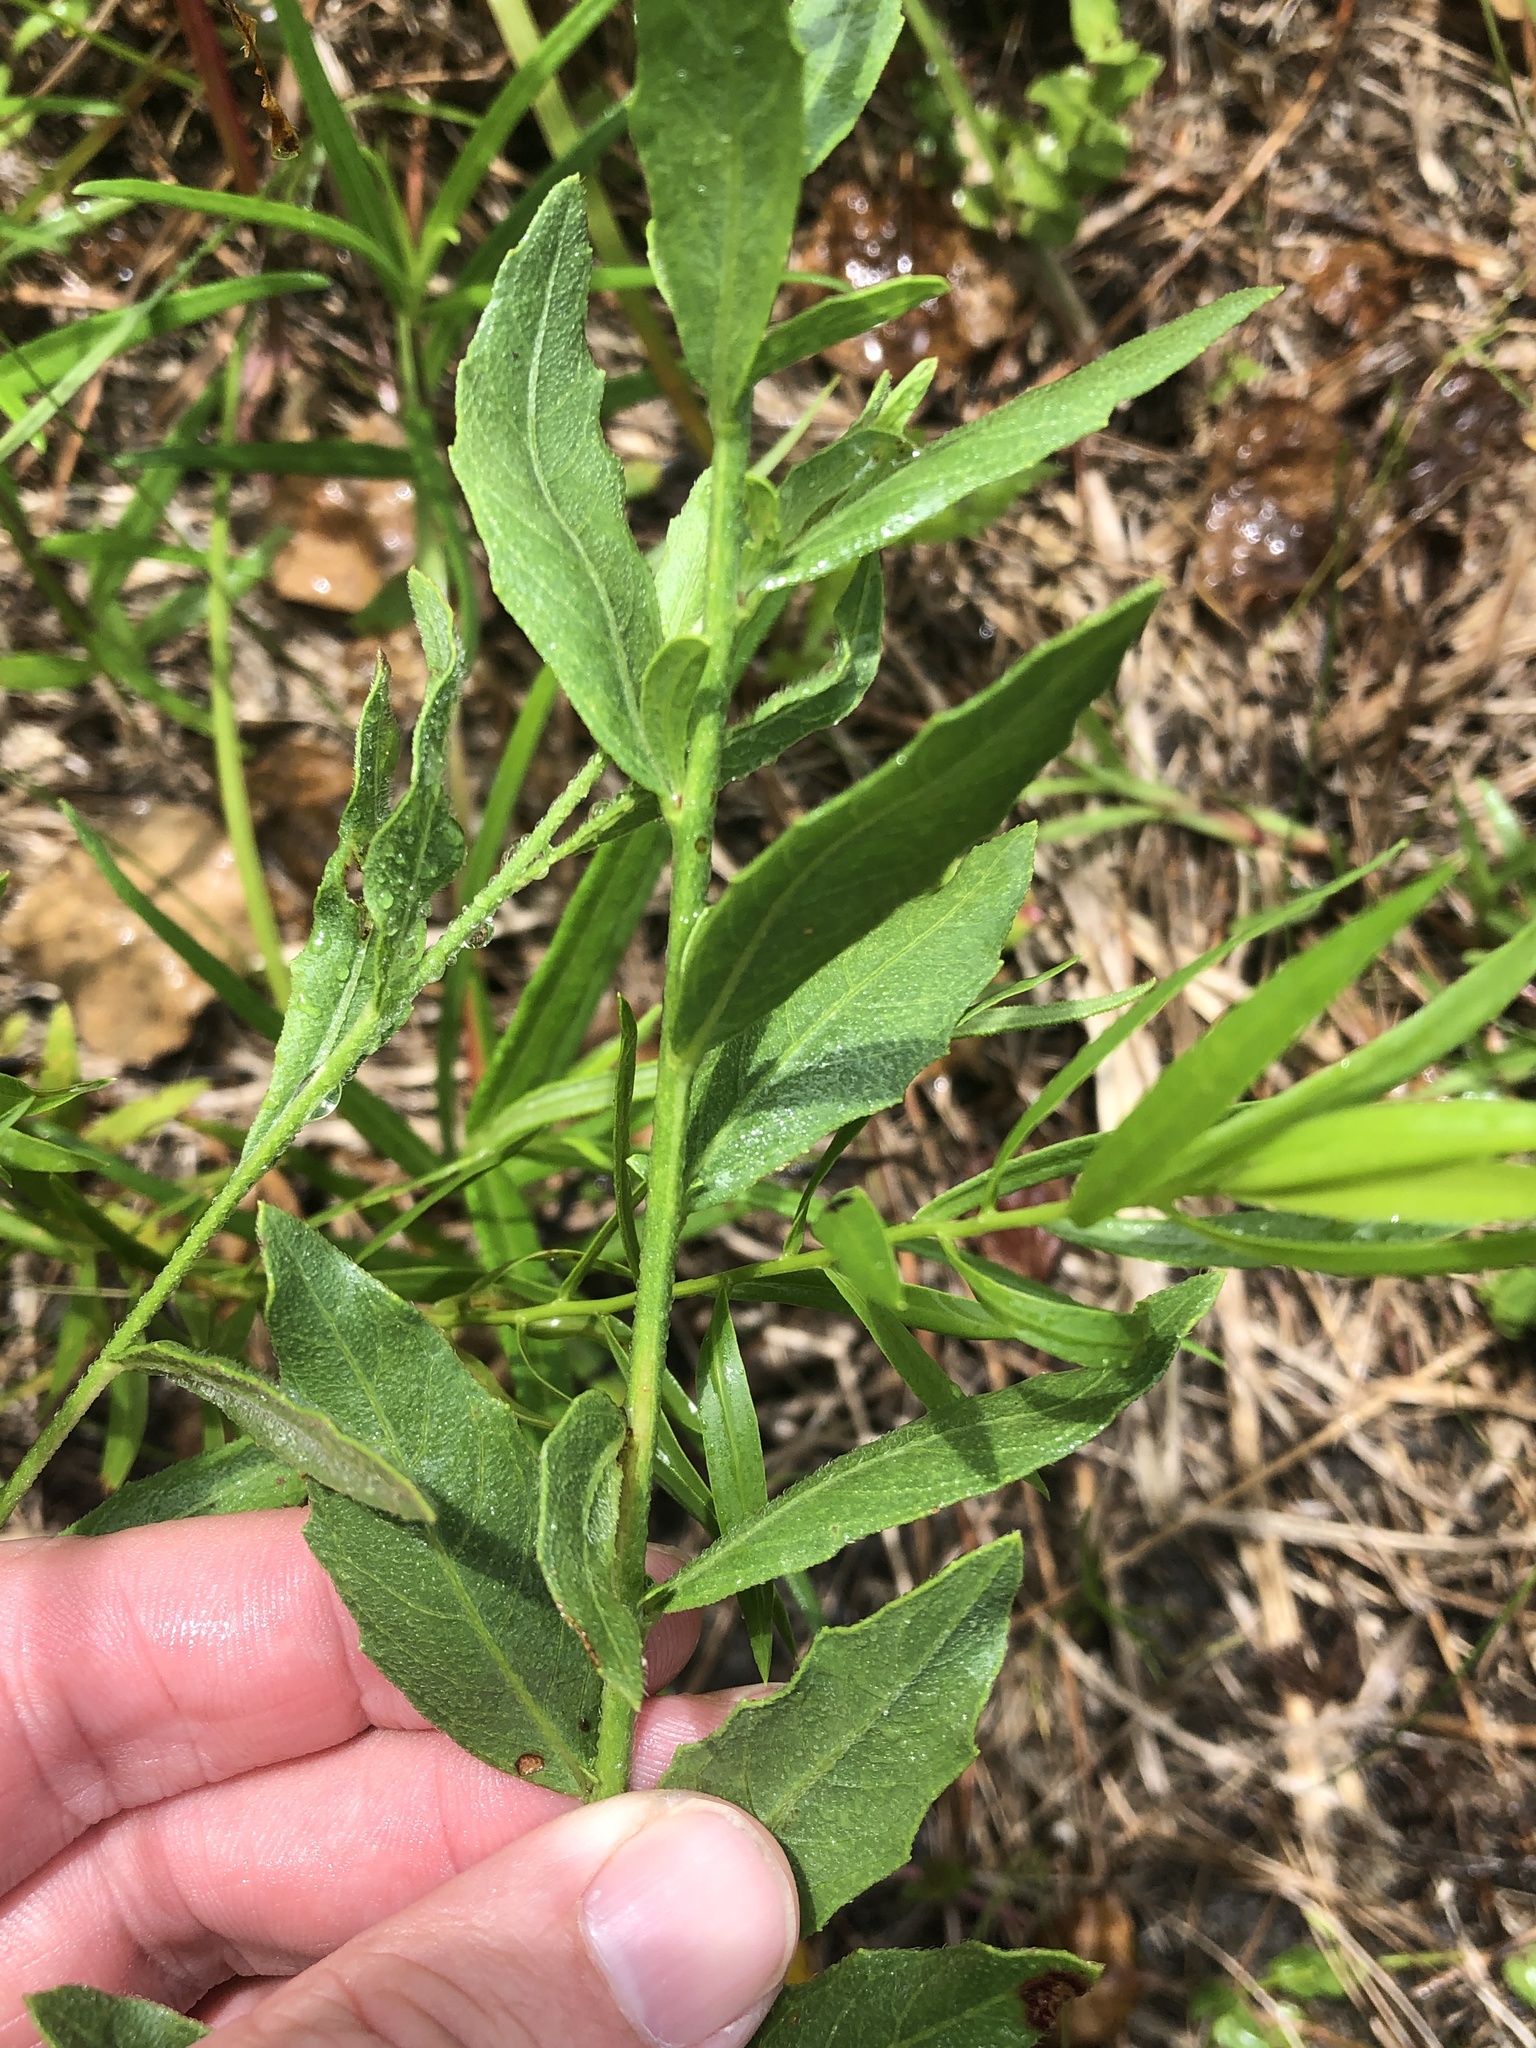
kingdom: Plantae
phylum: Tracheophyta
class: Magnoliopsida
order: Myrtales
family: Onagraceae
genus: Oenothera
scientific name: Oenothera lindheimeri
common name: Lindheimer's beeblossom
